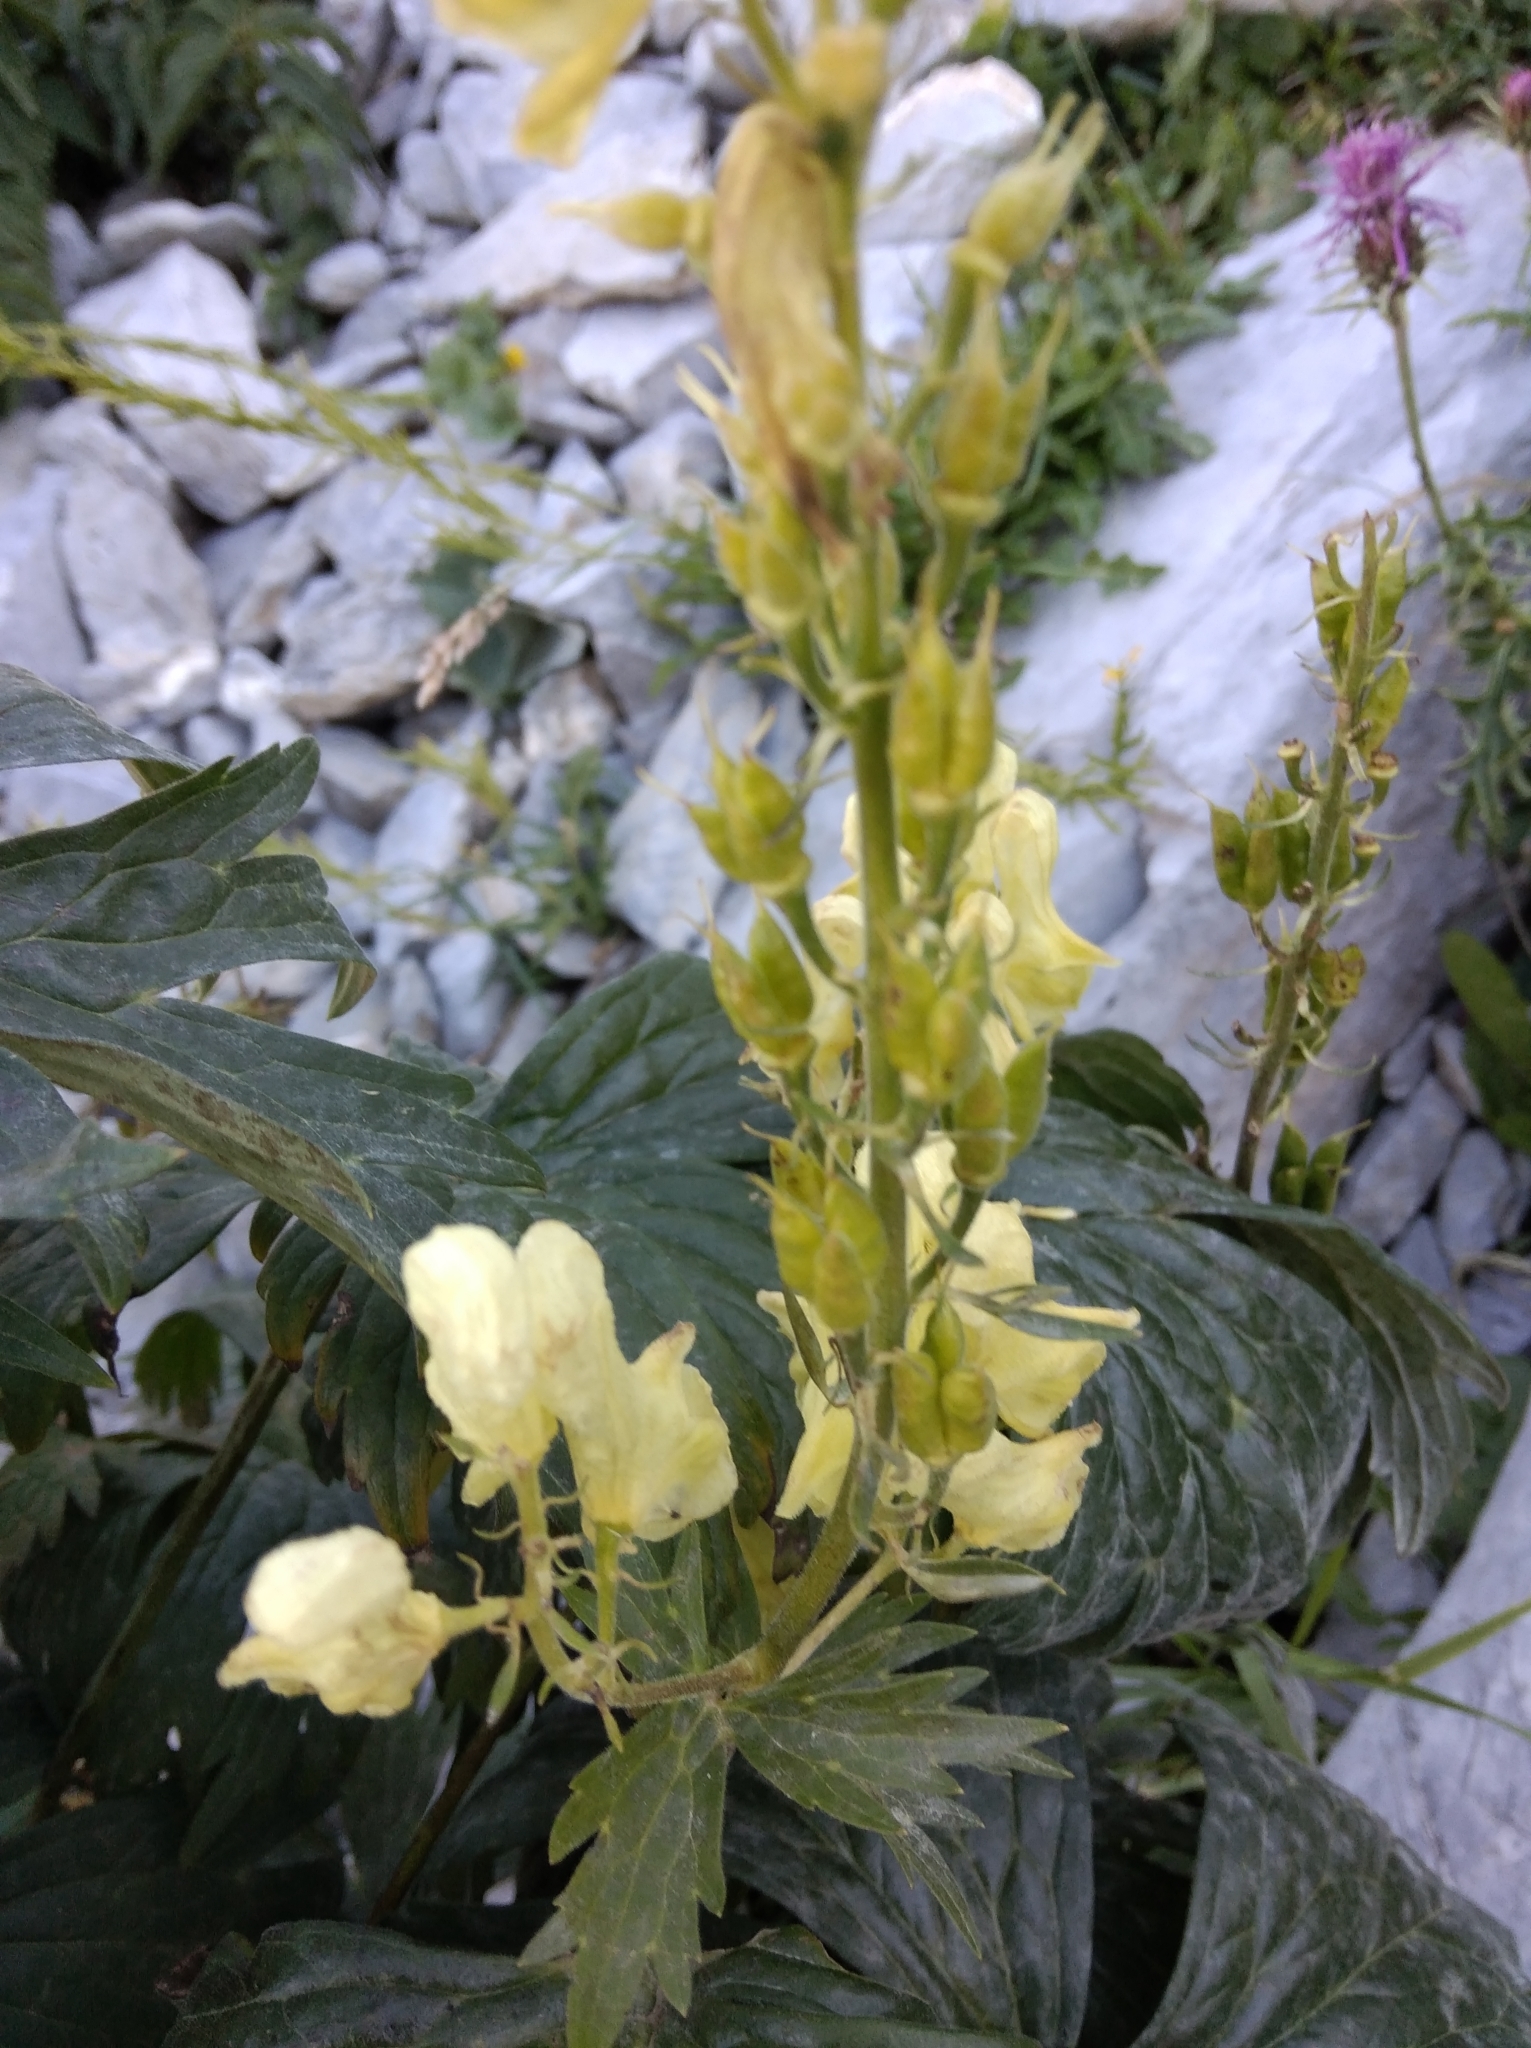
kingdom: Plantae
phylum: Tracheophyta
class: Magnoliopsida
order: Ranunculales
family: Ranunculaceae
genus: Aconitum
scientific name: Aconitum lycoctonum
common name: Wolf's-bane
